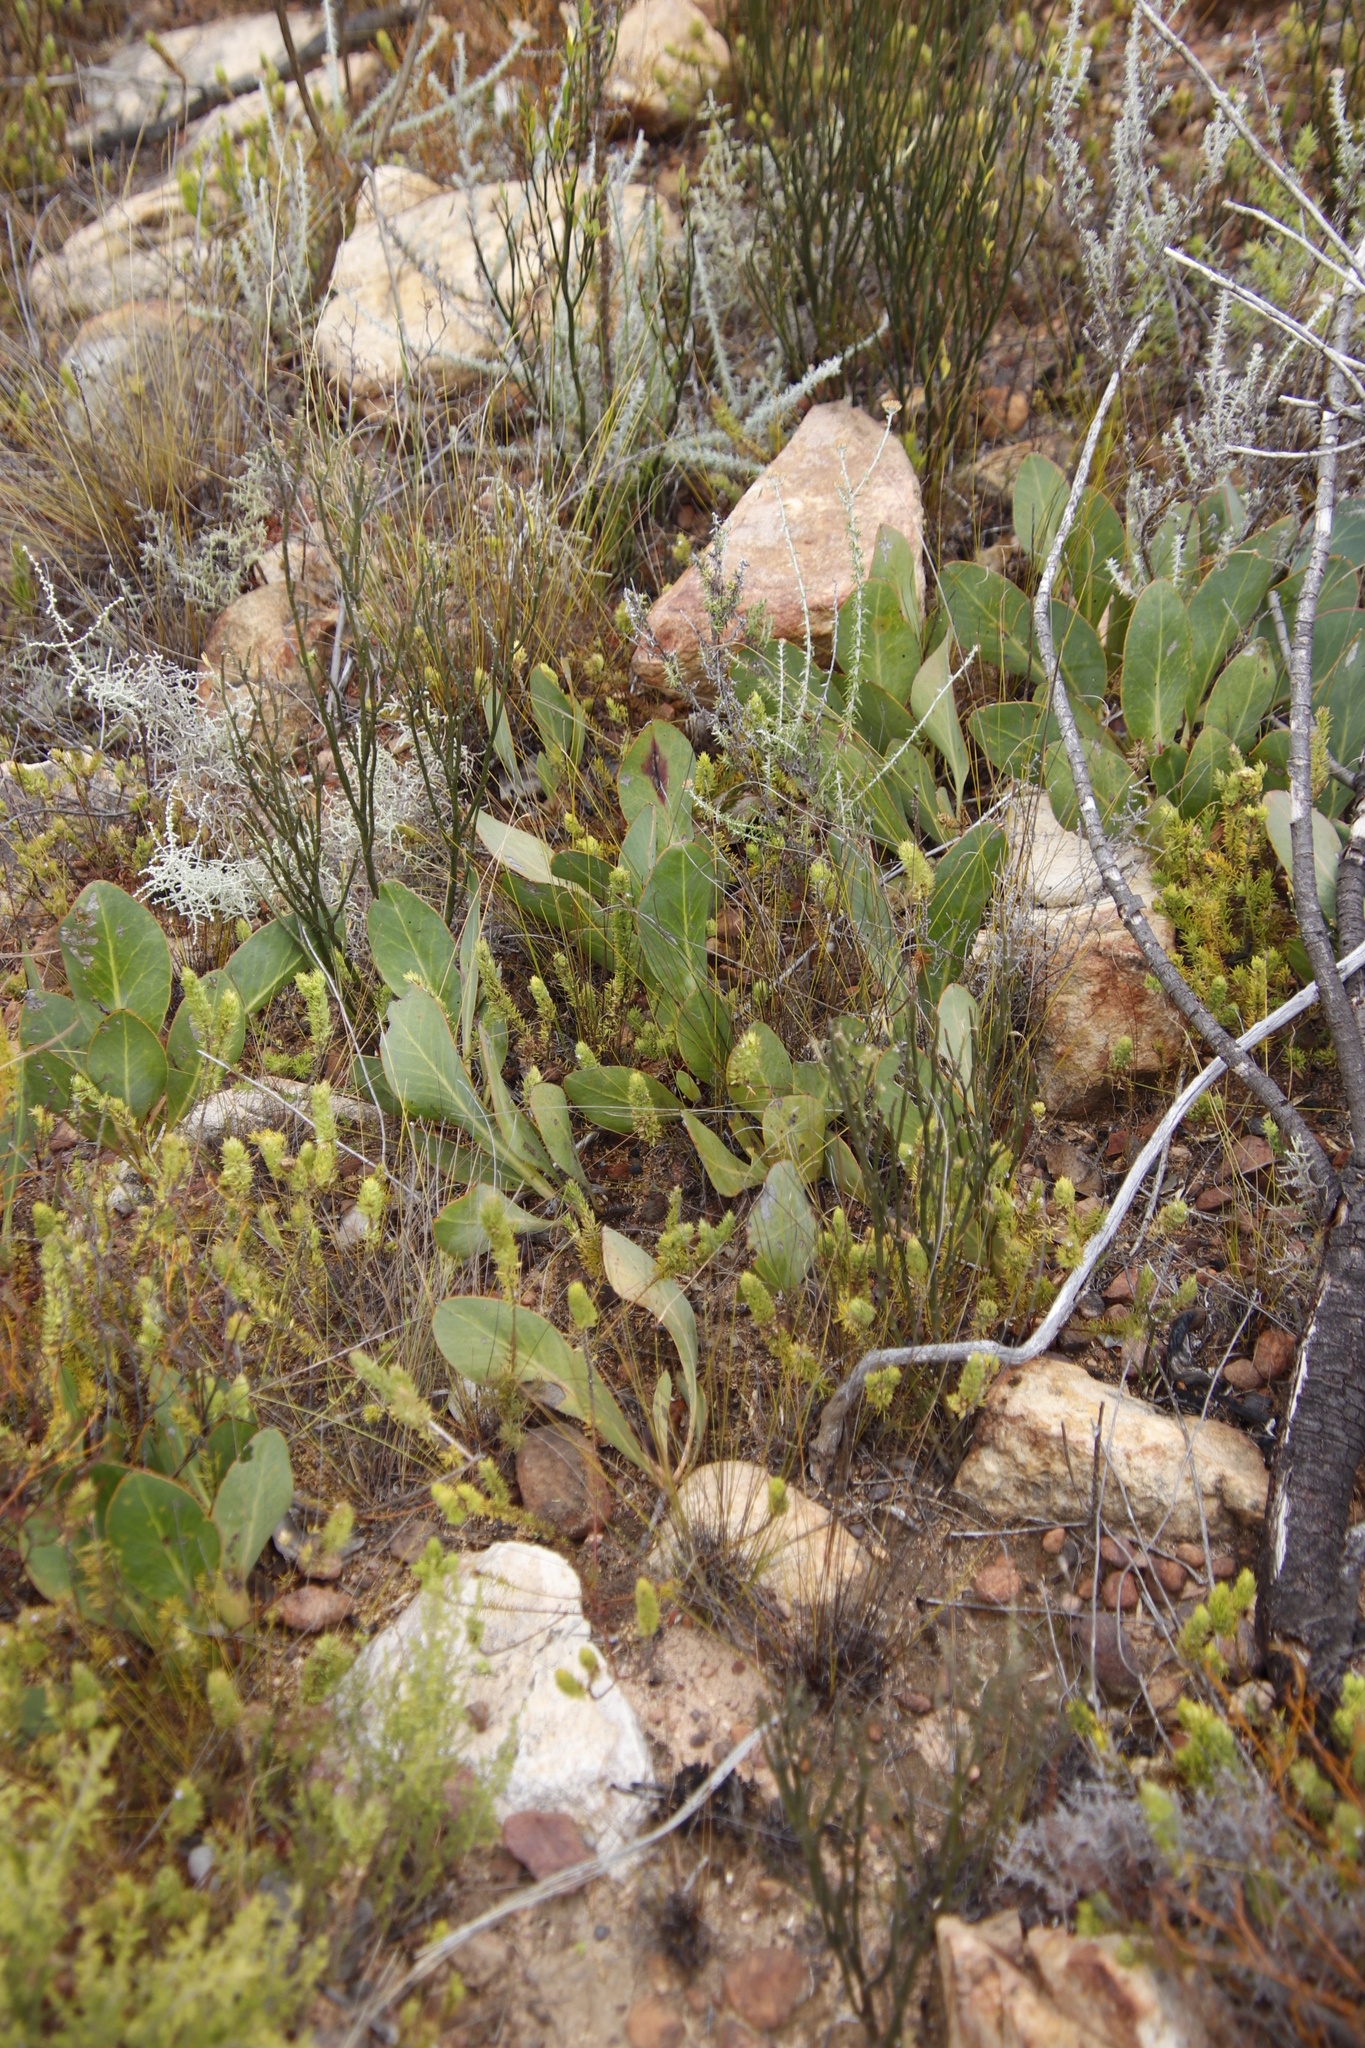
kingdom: Plantae
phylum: Tracheophyta
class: Magnoliopsida
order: Proteales
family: Proteaceae
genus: Protea
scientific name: Protea acaulos
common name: Common ground sugarbush
